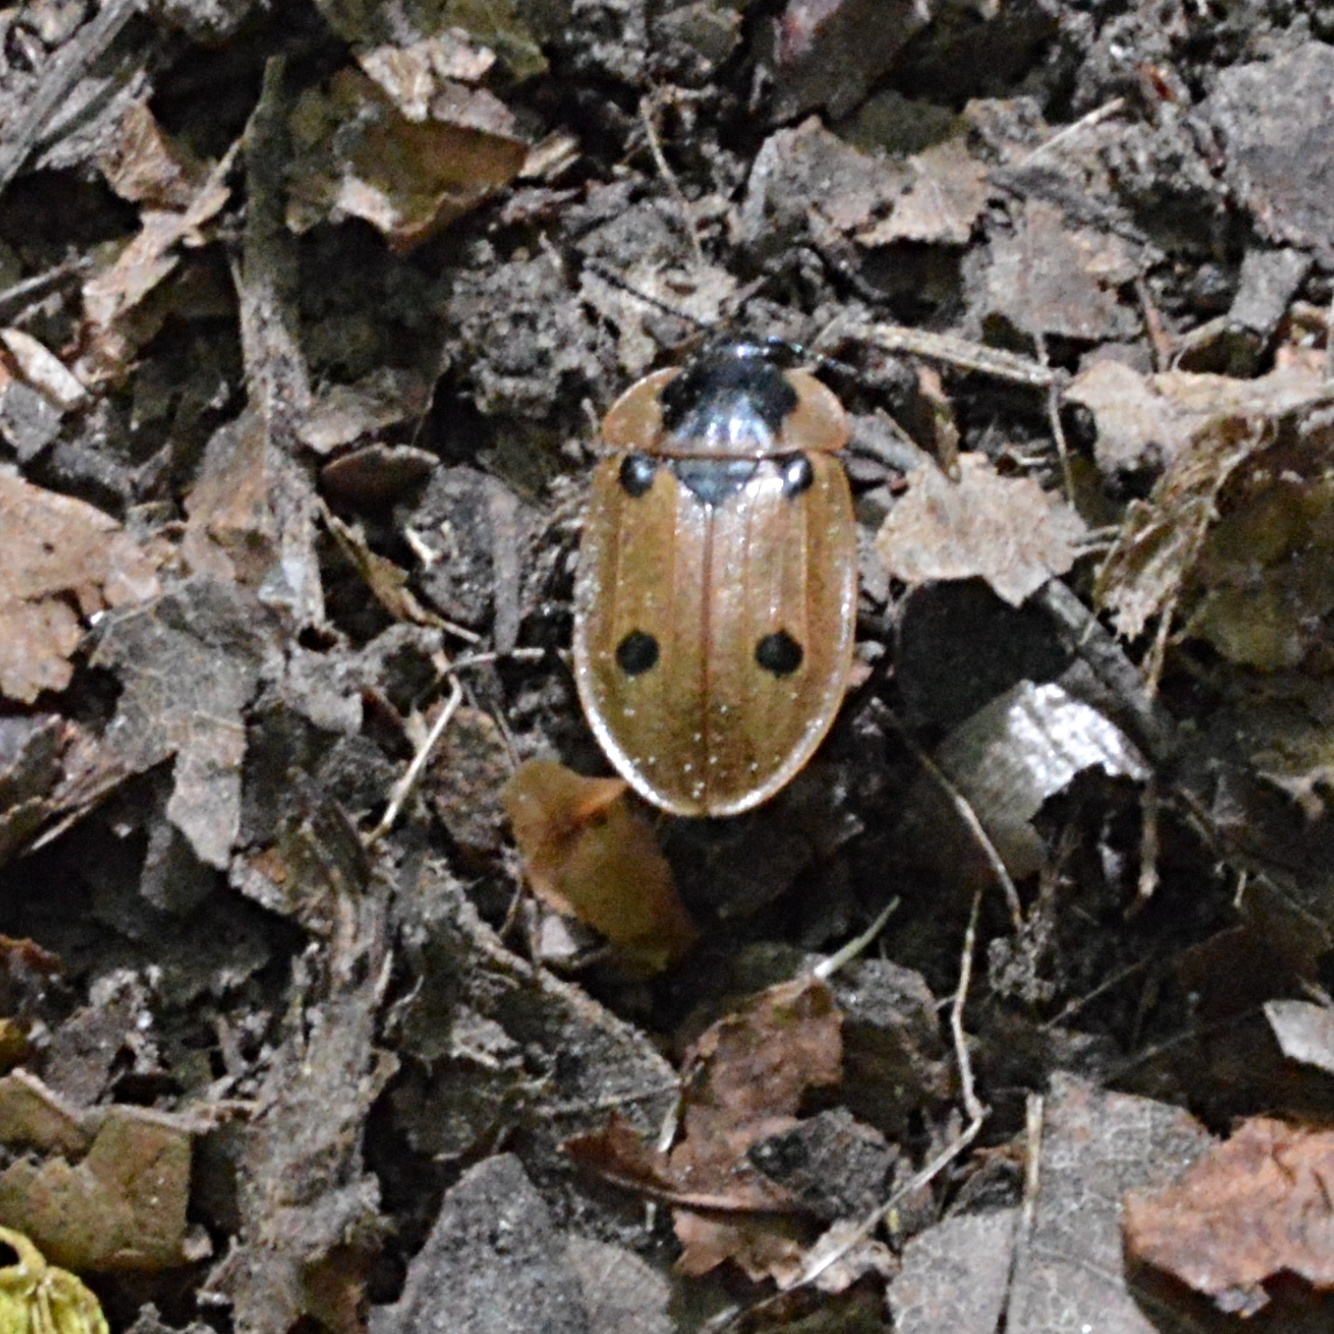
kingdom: Animalia
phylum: Arthropoda
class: Insecta
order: Coleoptera
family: Staphylinidae
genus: Dendroxena
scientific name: Dendroxena quadrimaculata
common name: Carrion beetle
